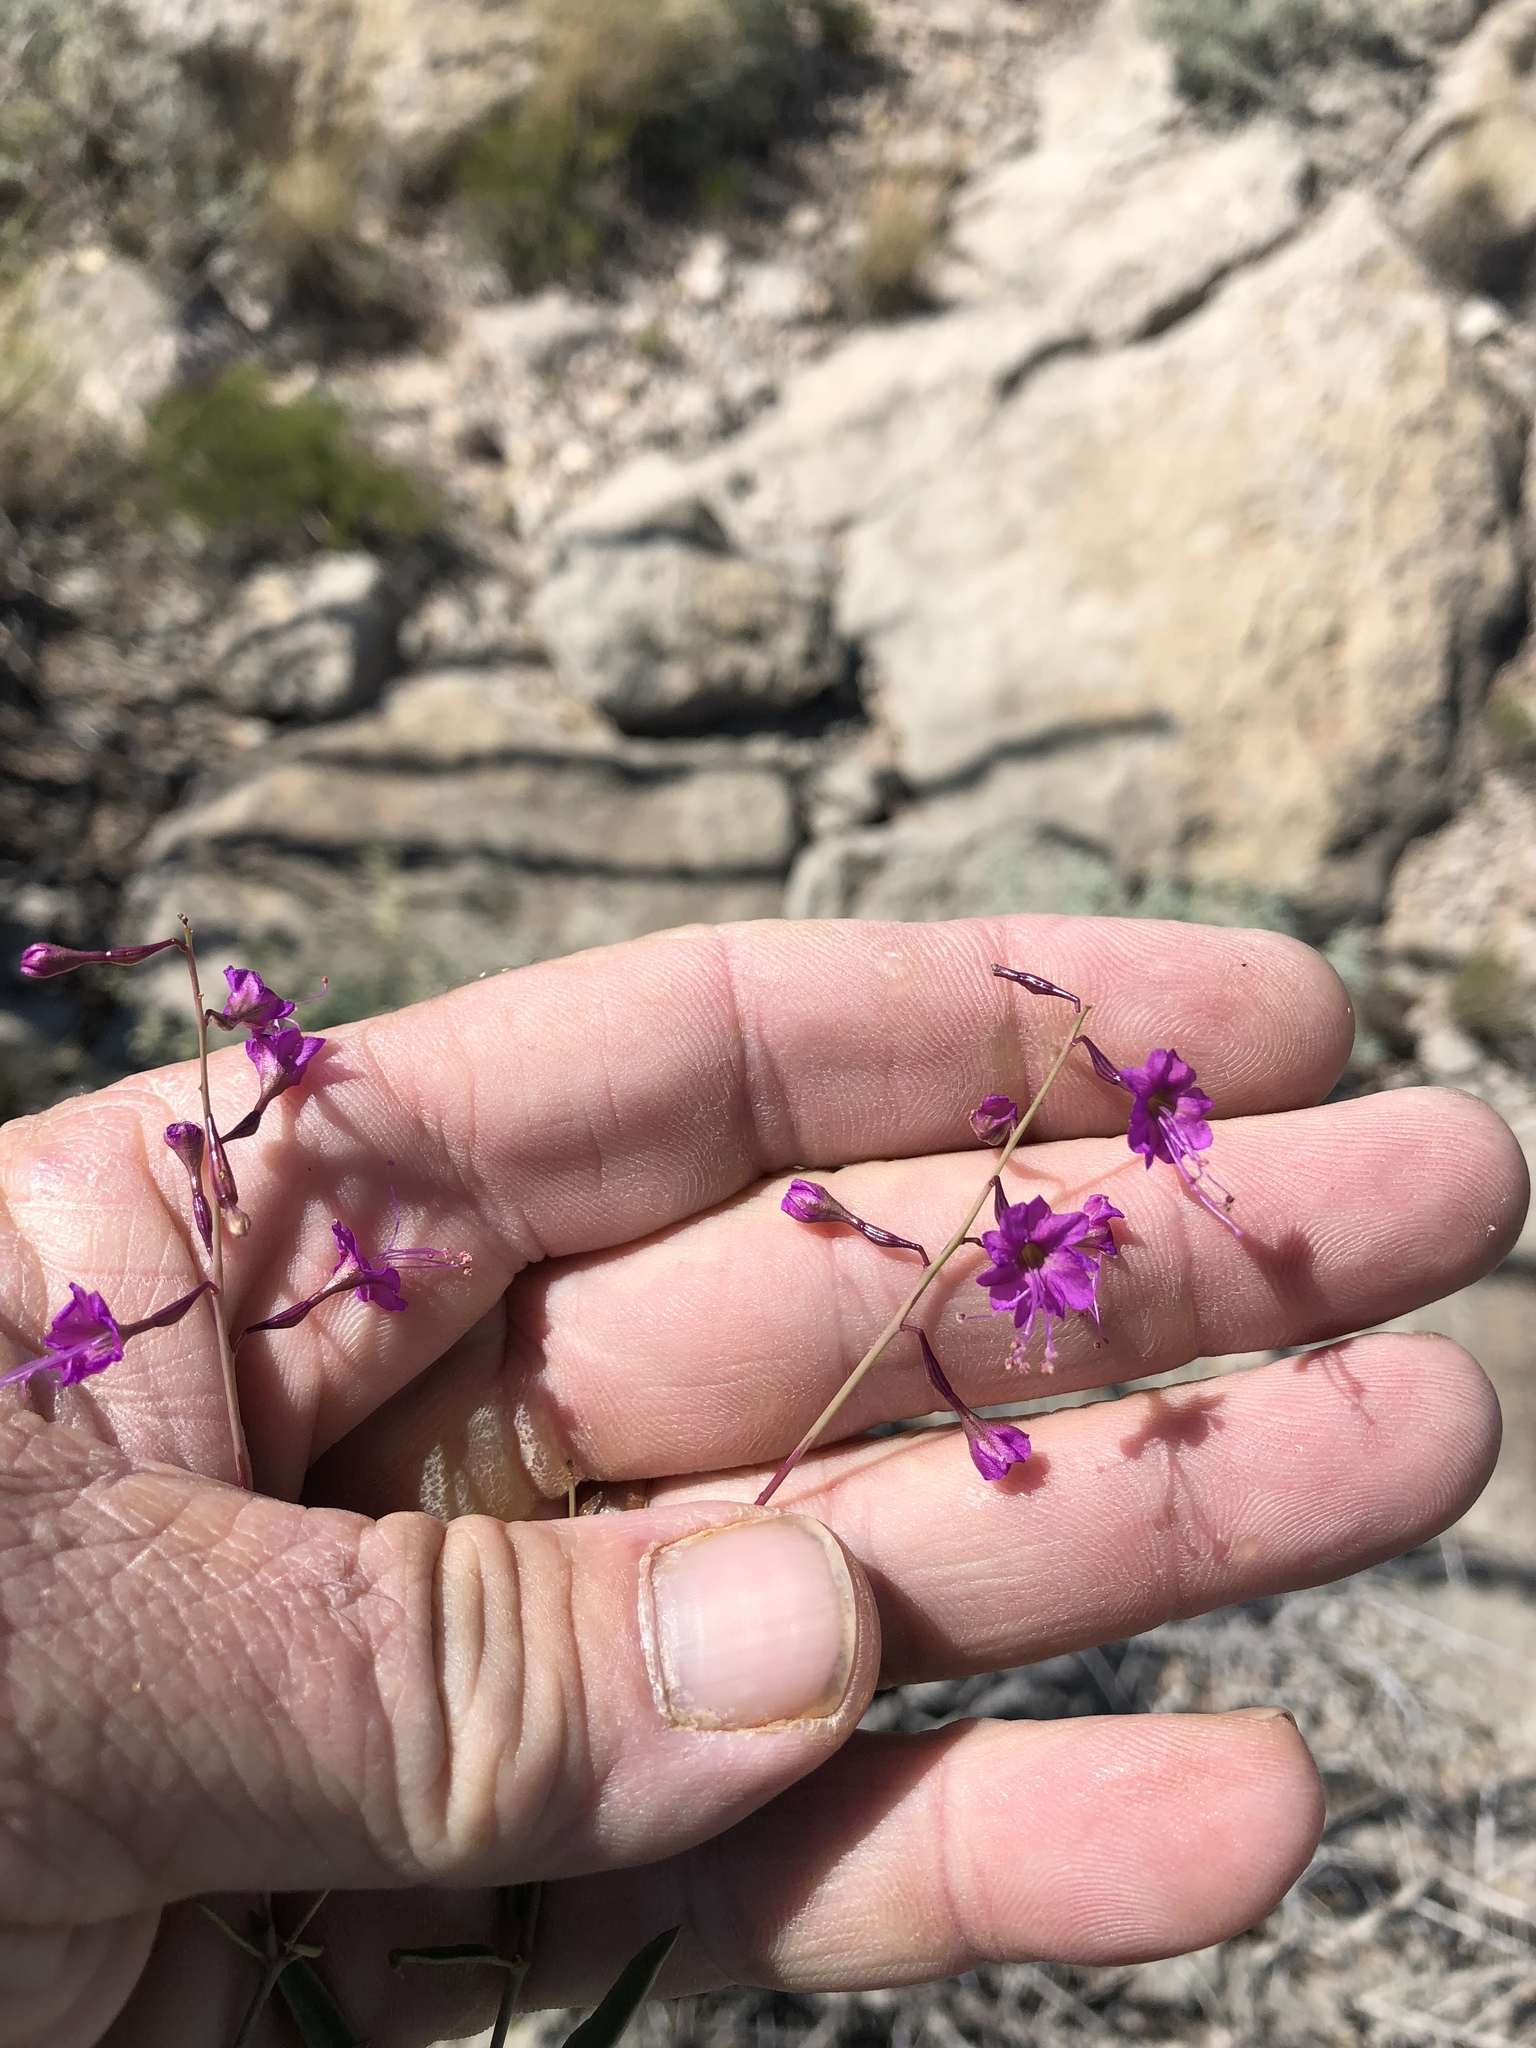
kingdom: Plantae
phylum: Tracheophyta
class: Magnoliopsida
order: Caryophyllales
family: Nyctaginaceae
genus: Cyphomeris
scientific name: Cyphomeris gypsophiloides
